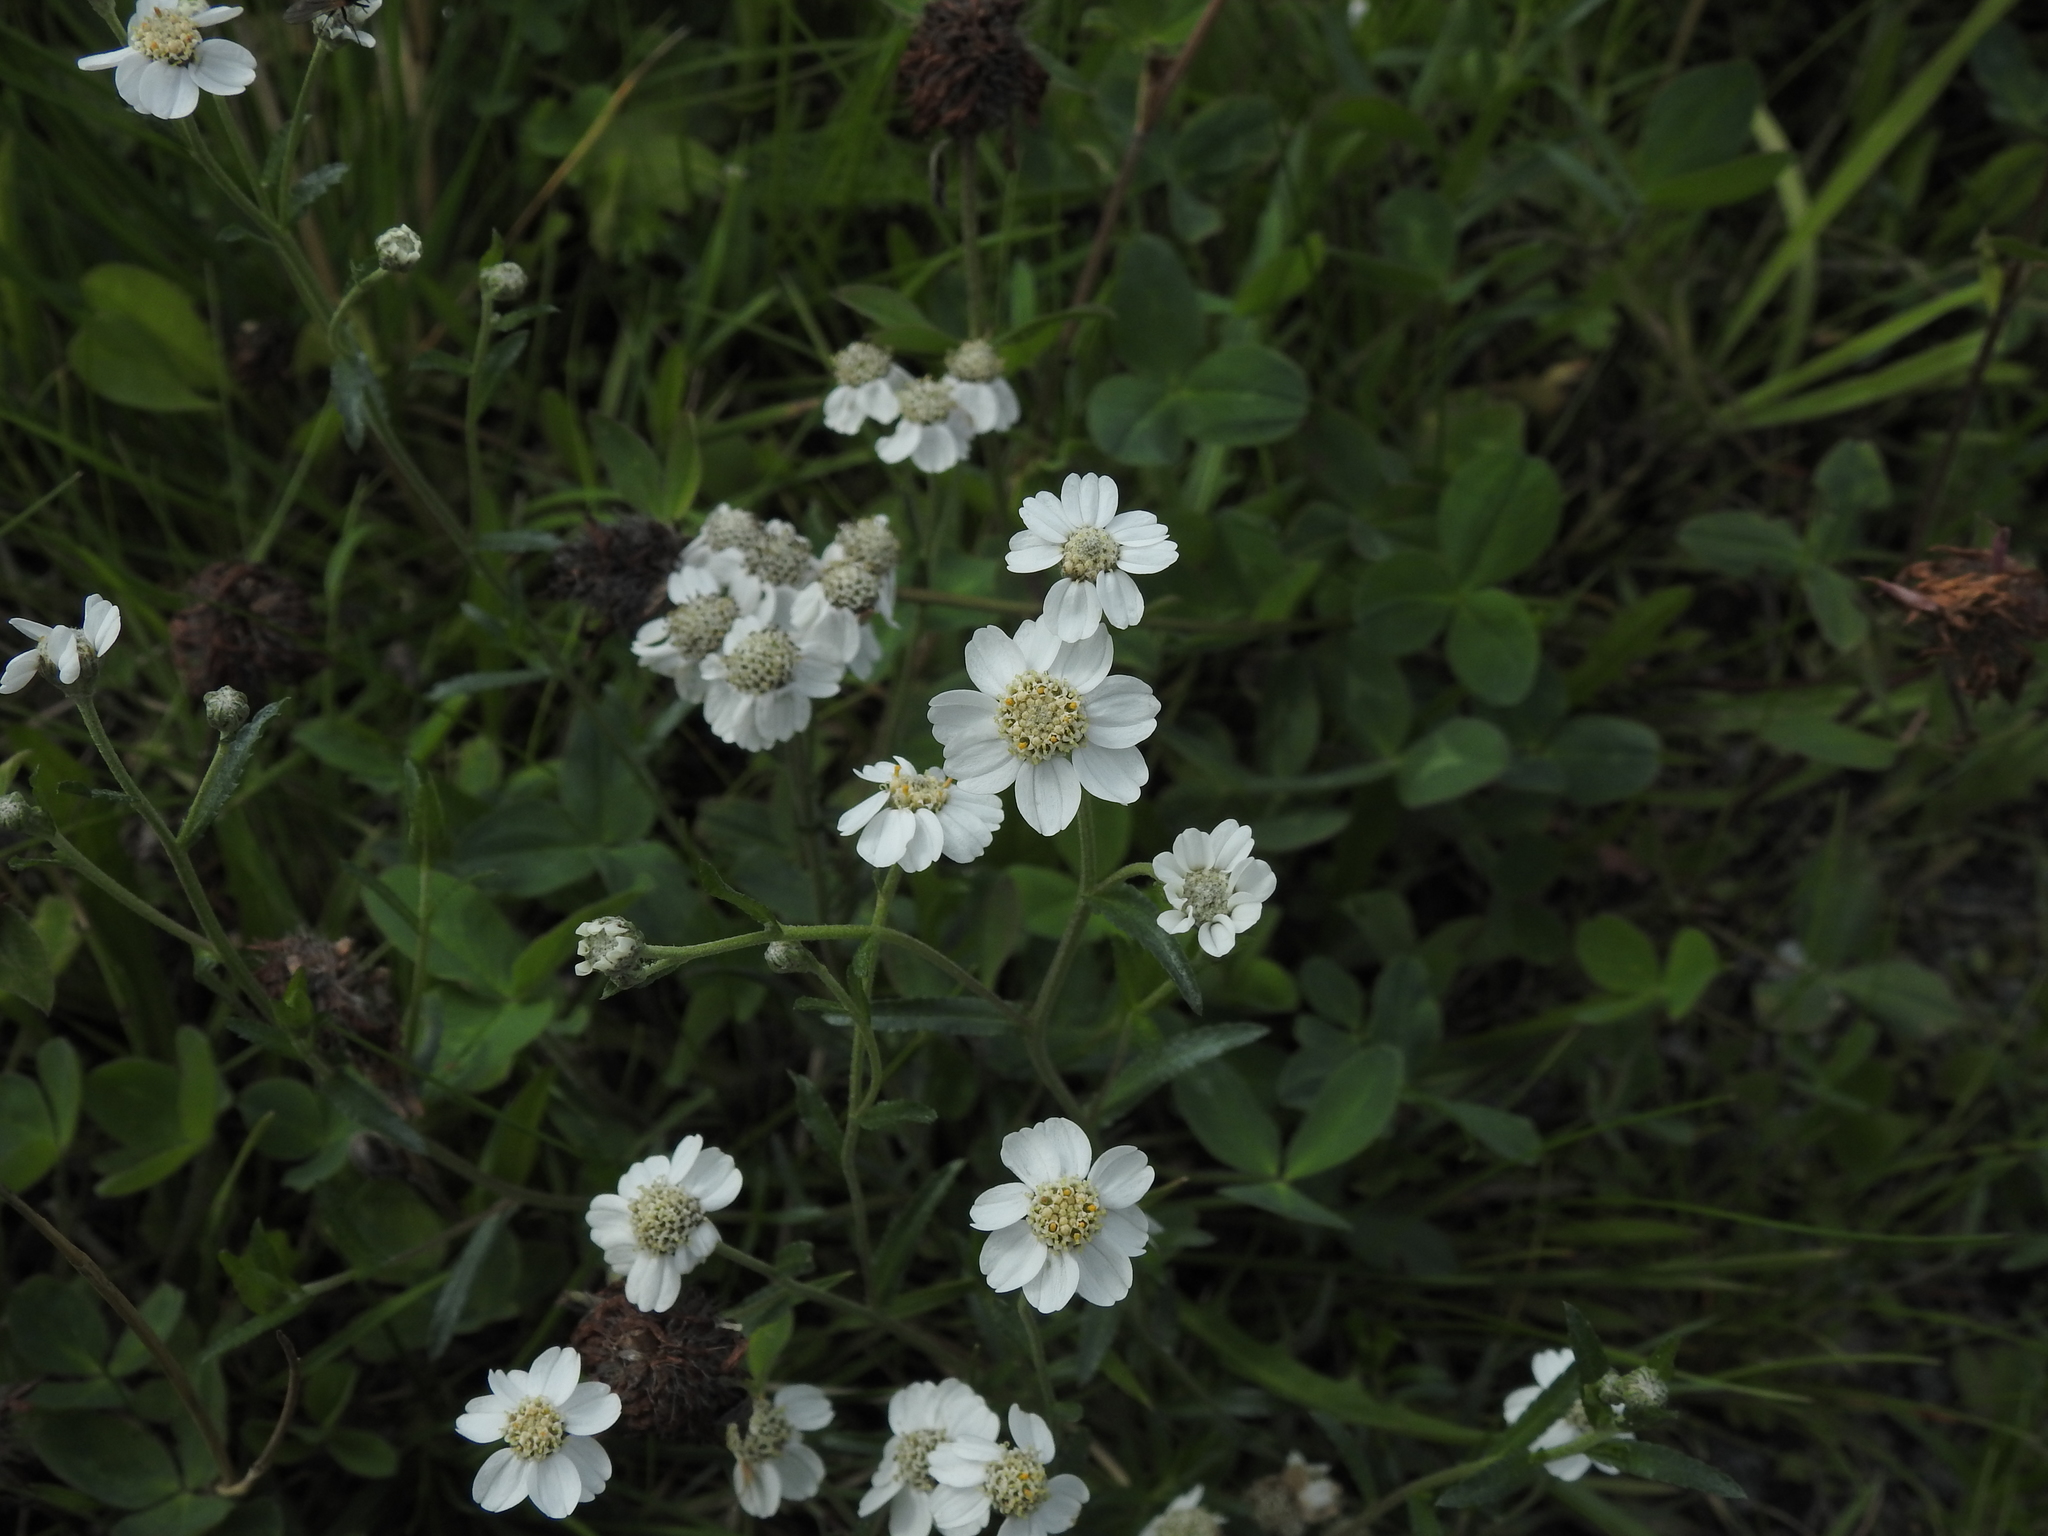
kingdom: Plantae
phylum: Tracheophyta
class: Magnoliopsida
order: Asterales
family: Asteraceae
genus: Achillea
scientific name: Achillea ptarmica
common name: Sneezeweed
